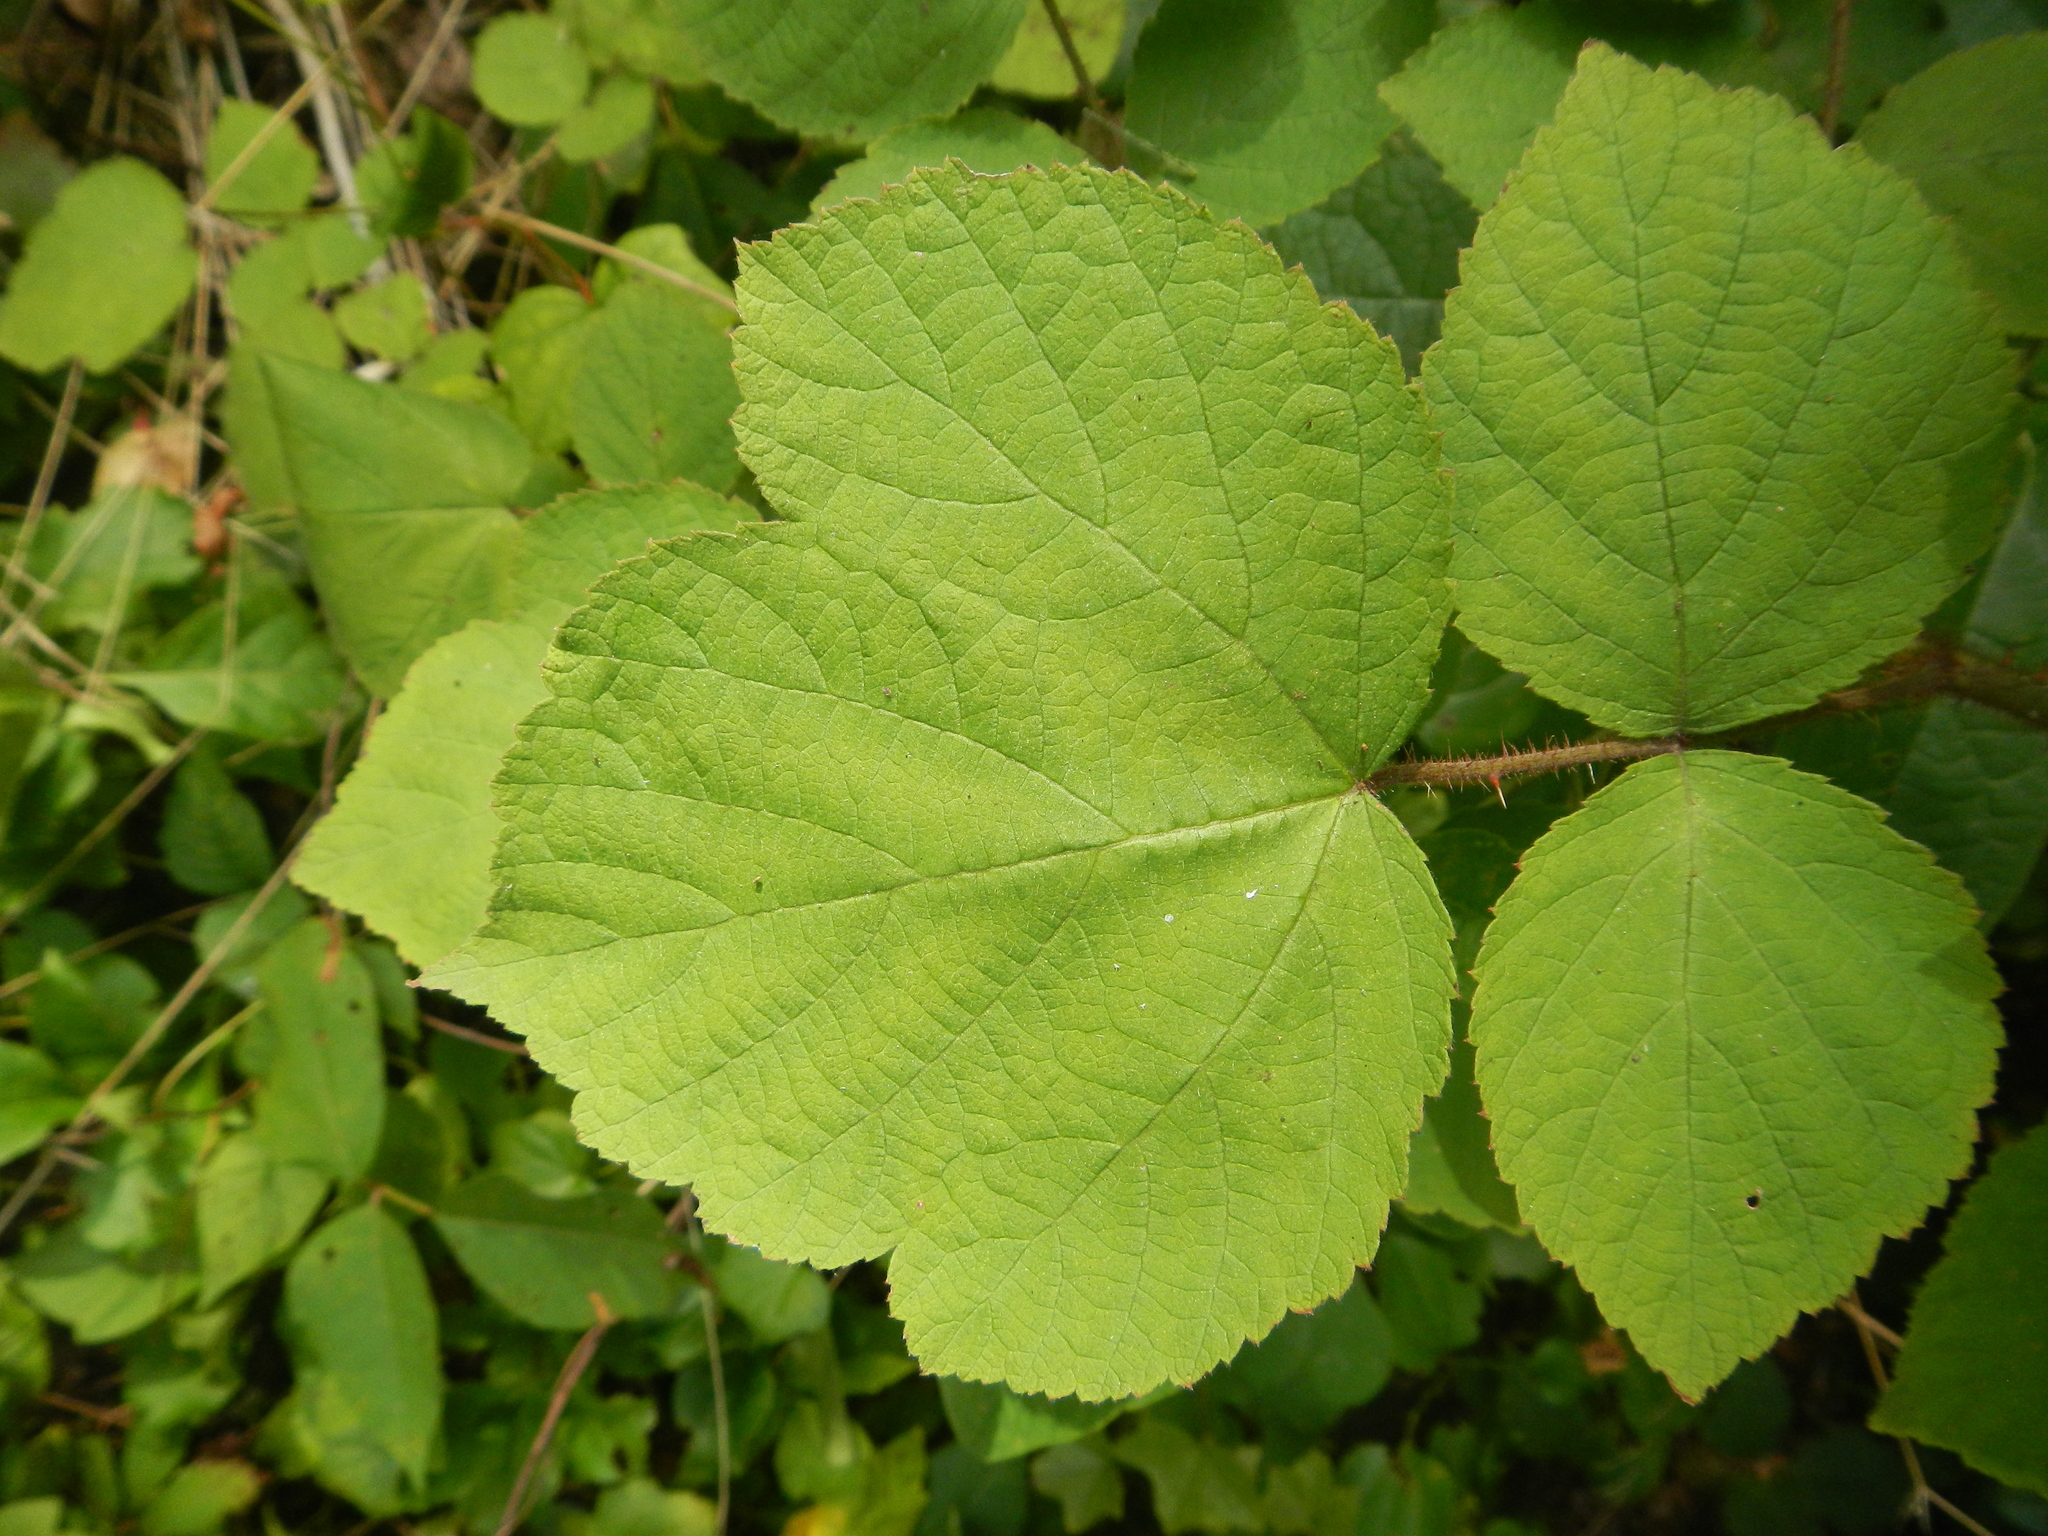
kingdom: Plantae
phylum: Tracheophyta
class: Magnoliopsida
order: Rosales
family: Rosaceae
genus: Rubus
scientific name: Rubus phoenicolasius
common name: Japanese wineberry
